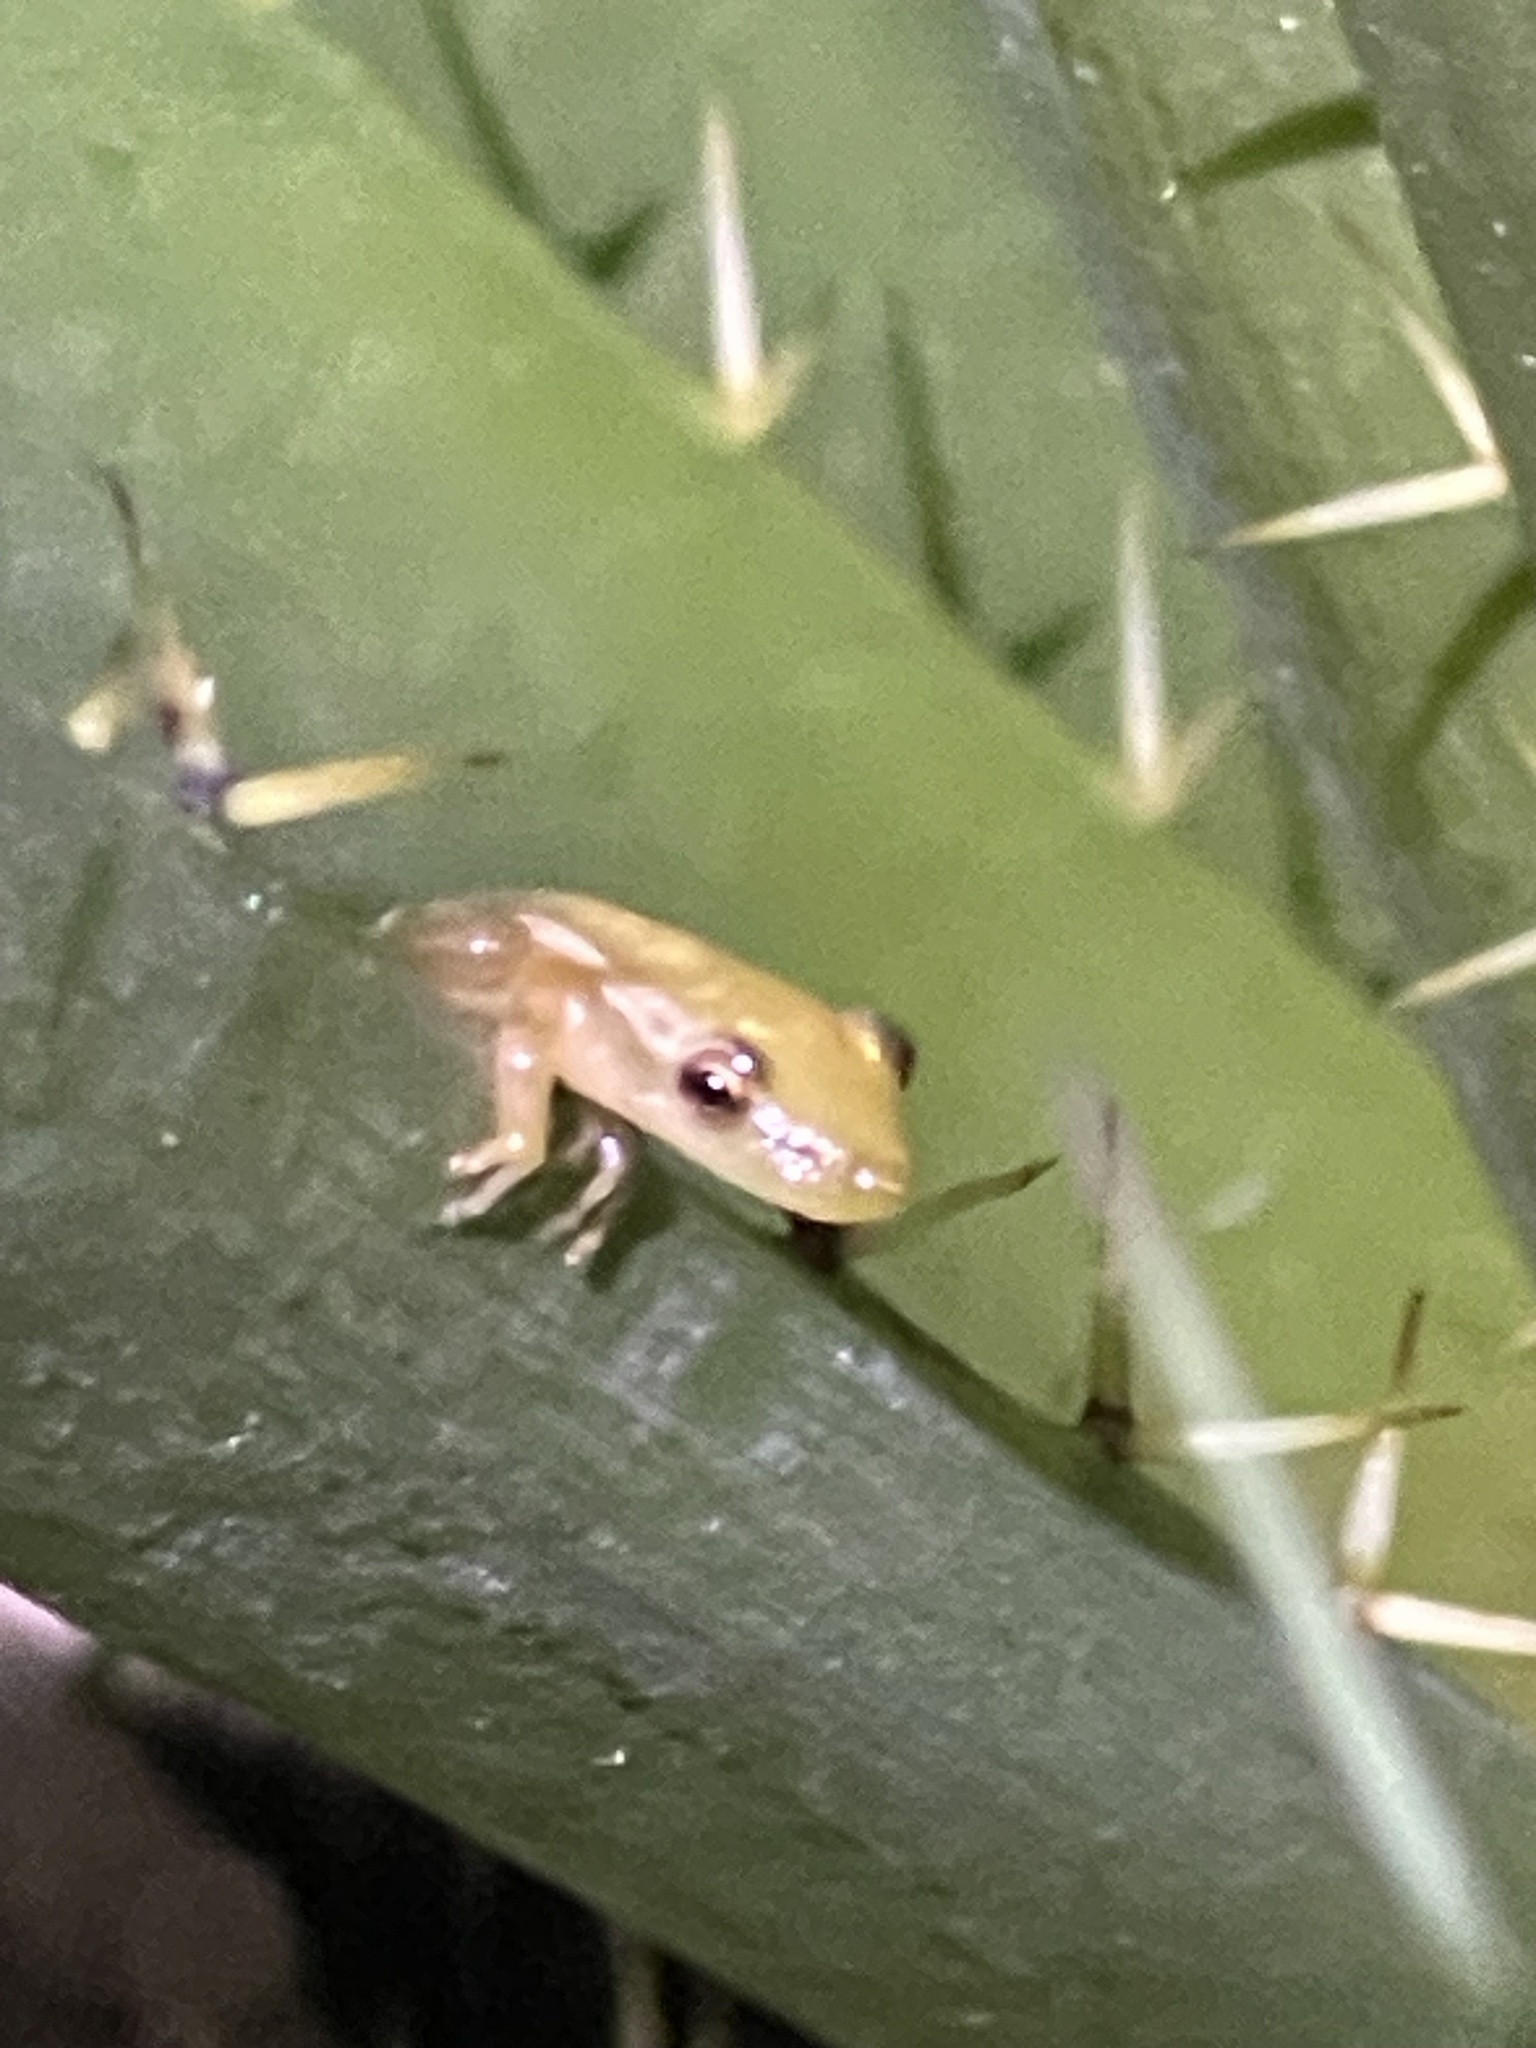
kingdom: Animalia
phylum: Chordata
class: Amphibia
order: Anura
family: Hylidae
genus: Scinax
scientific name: Scinax squalirostris
